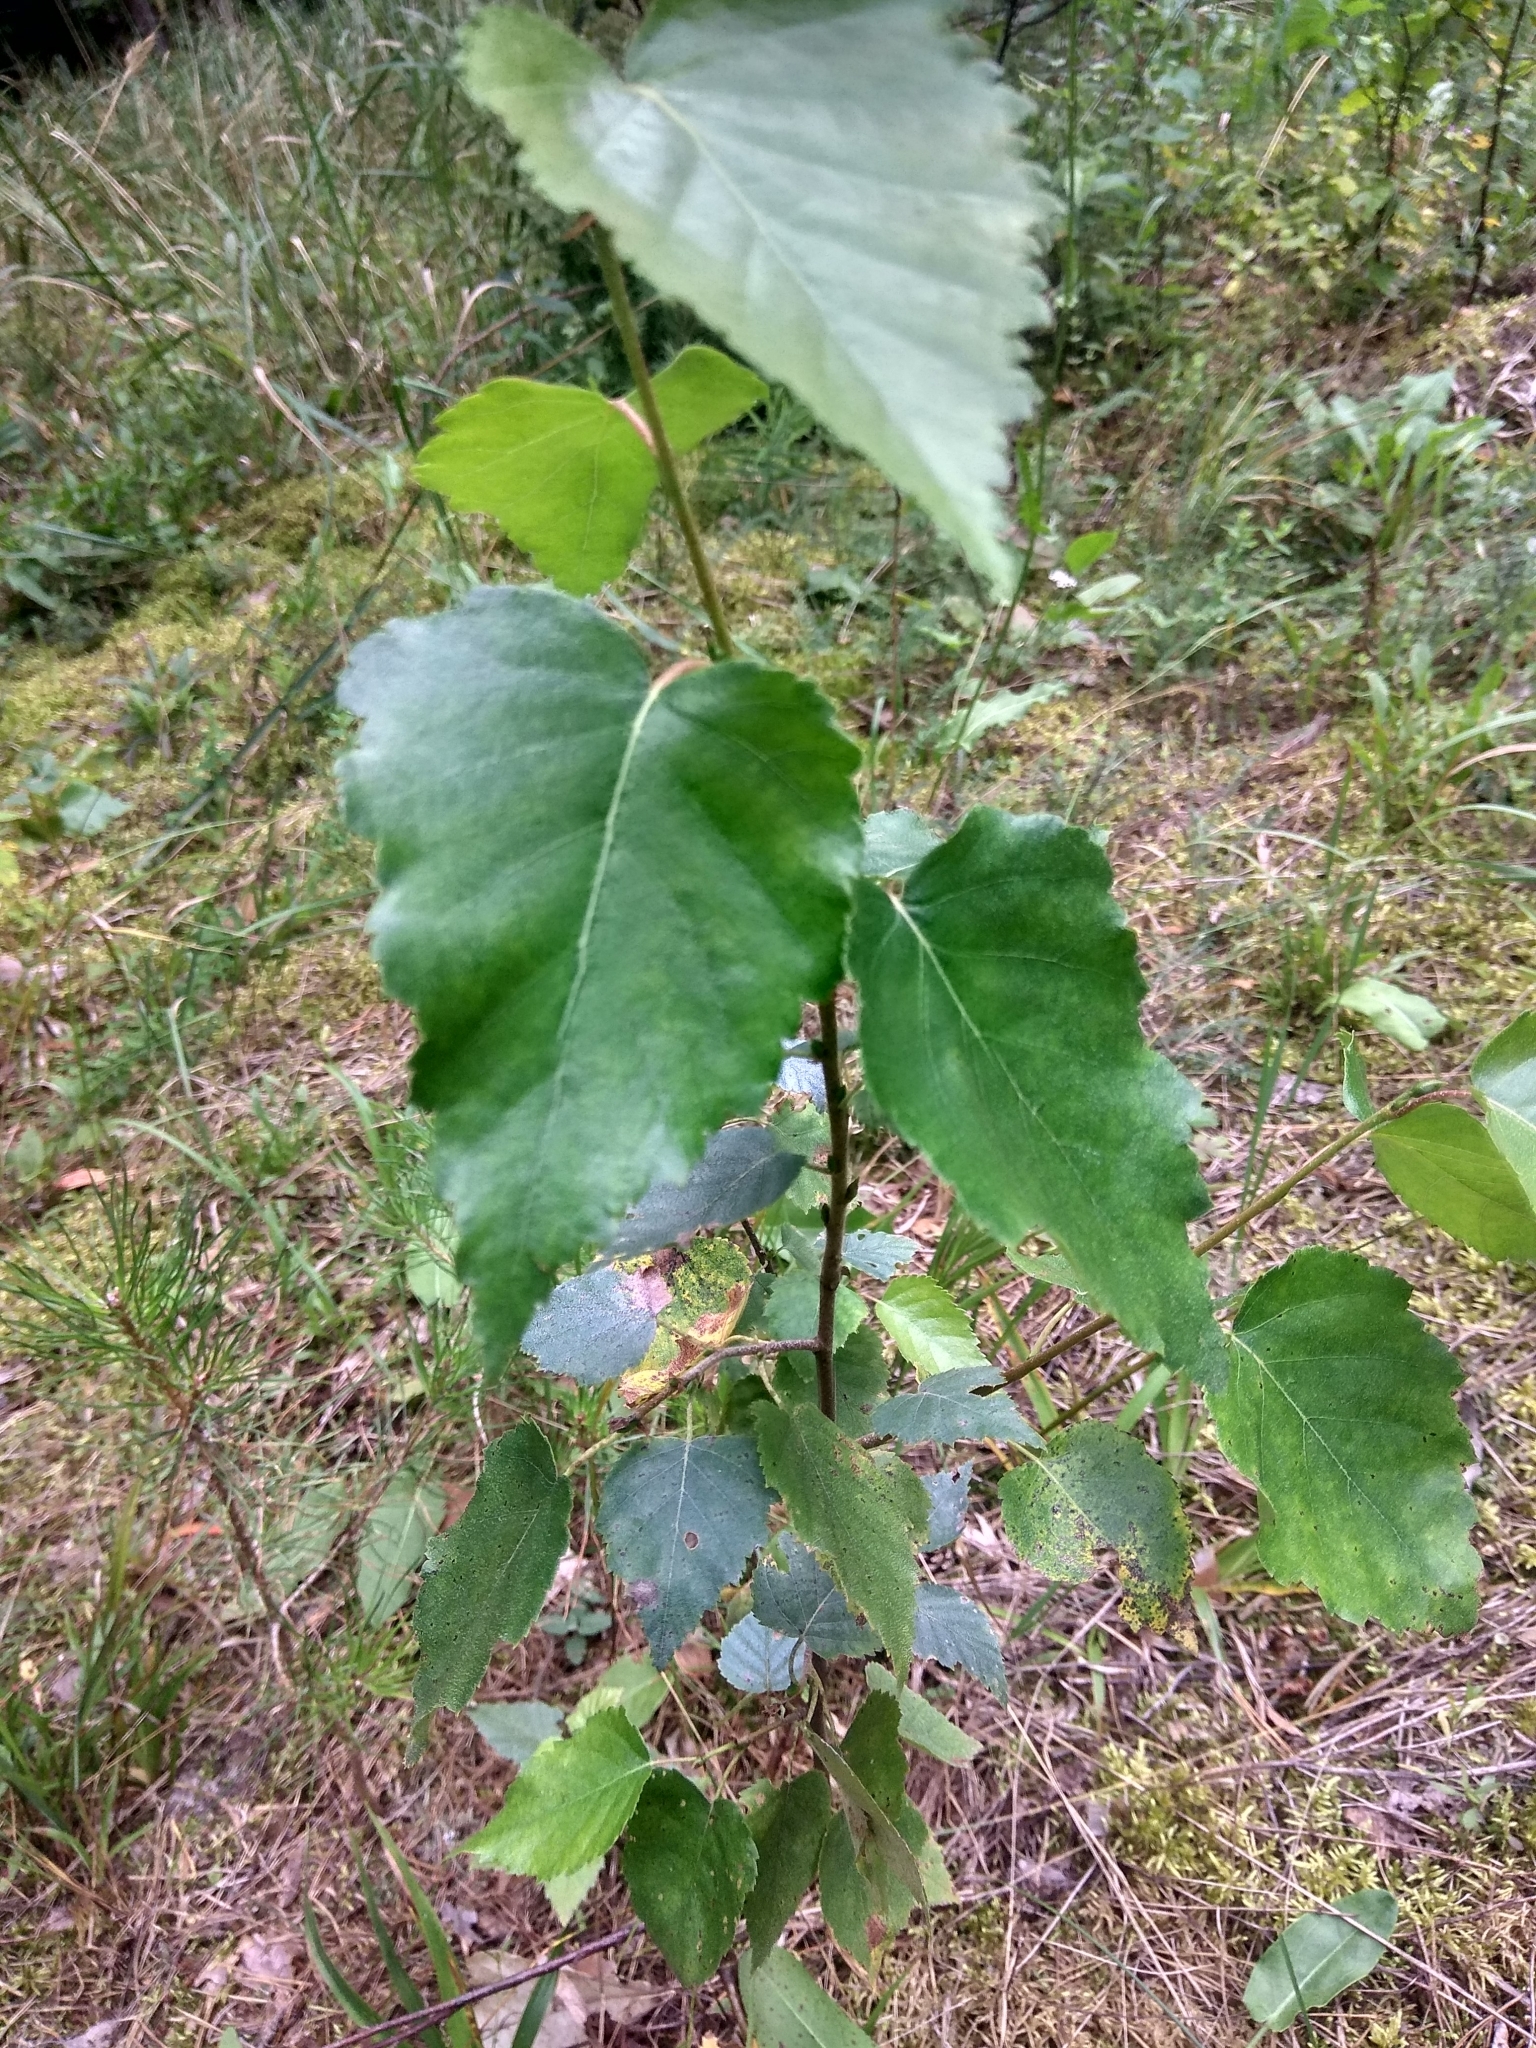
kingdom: Plantae
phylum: Tracheophyta
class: Magnoliopsida
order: Fagales
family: Betulaceae
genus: Betula
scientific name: Betula pendula
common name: Silver birch
